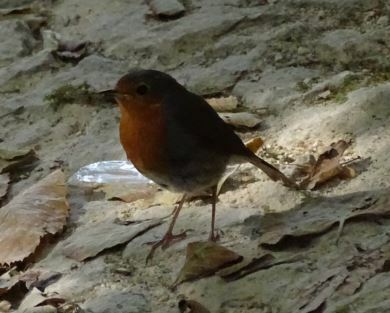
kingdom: Animalia
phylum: Chordata
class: Aves
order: Passeriformes
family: Muscicapidae
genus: Erithacus
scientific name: Erithacus rubecula
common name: European robin
